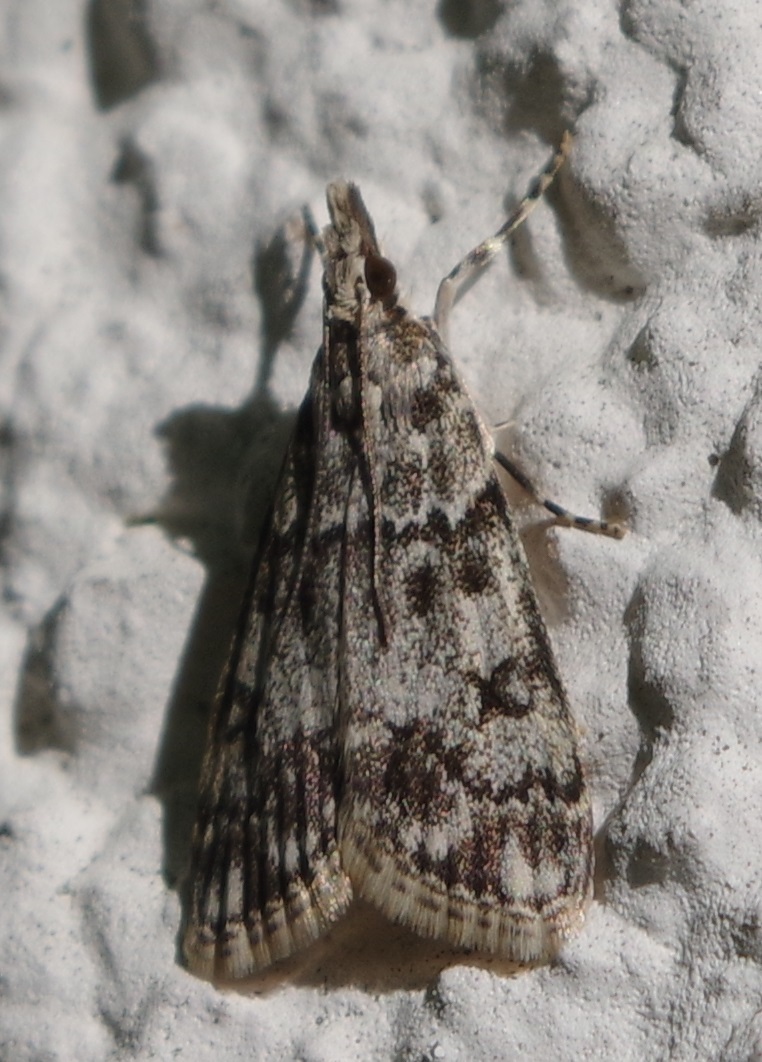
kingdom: Animalia
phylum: Arthropoda
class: Insecta
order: Lepidoptera
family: Crambidae
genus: Eudonia
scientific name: Eudonia lacustrata
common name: Little grey
